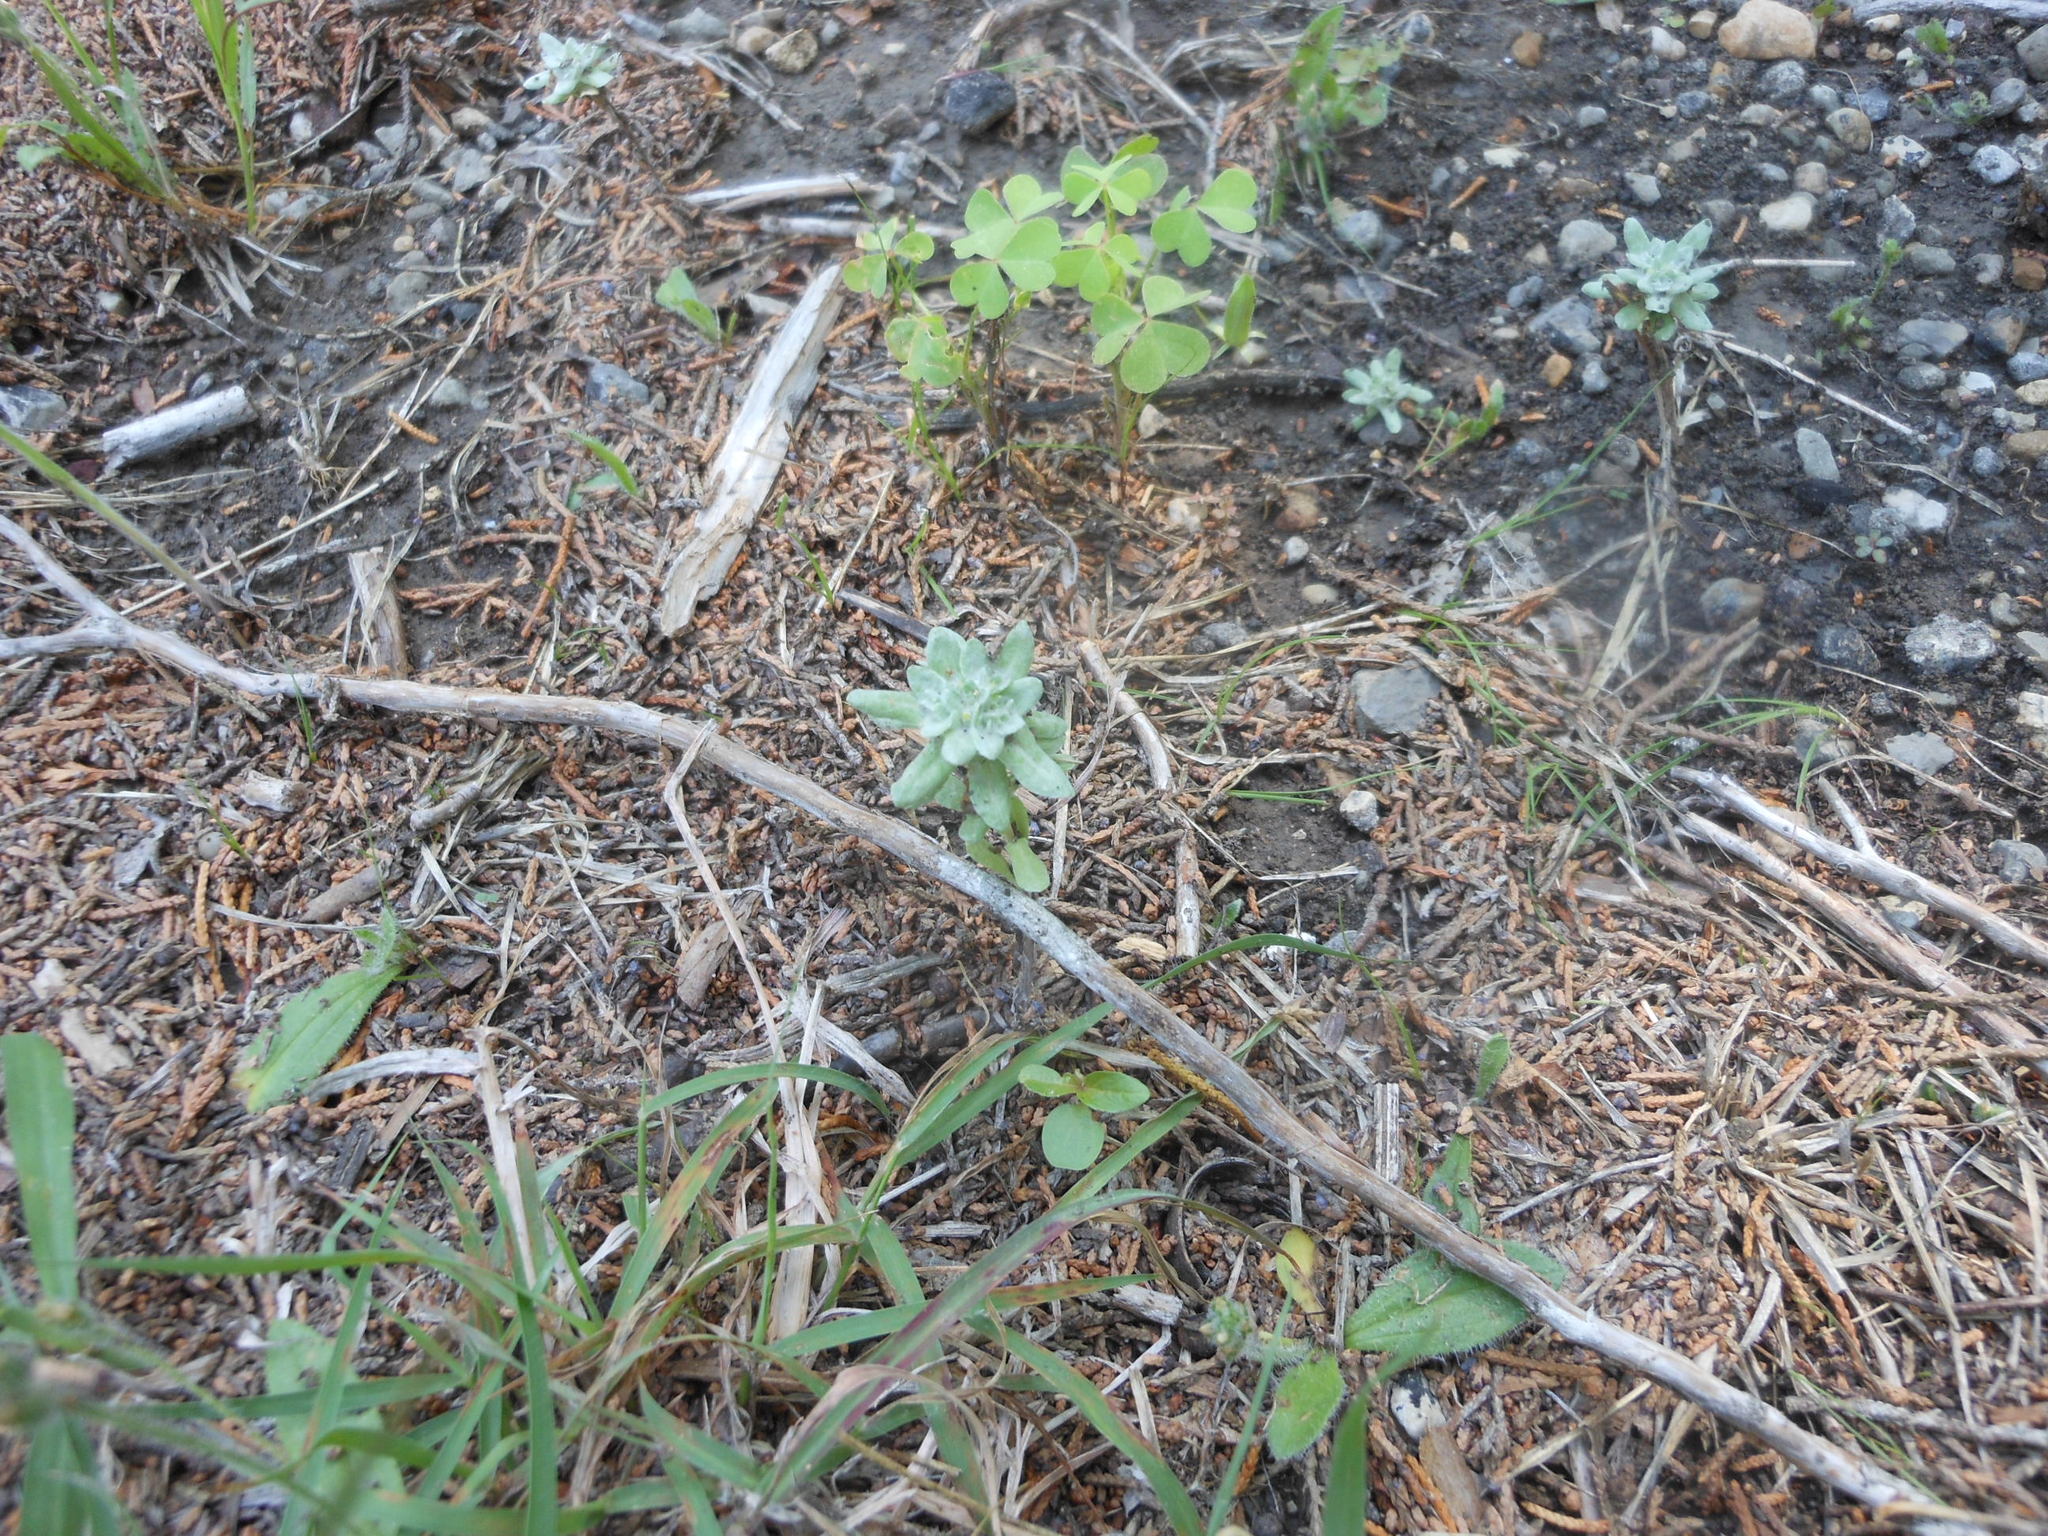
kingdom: Plantae
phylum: Tracheophyta
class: Magnoliopsida
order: Asterales
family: Asteraceae
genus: Diaperia
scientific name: Diaperia prolifera
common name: Big-head rabbit-tobacco
